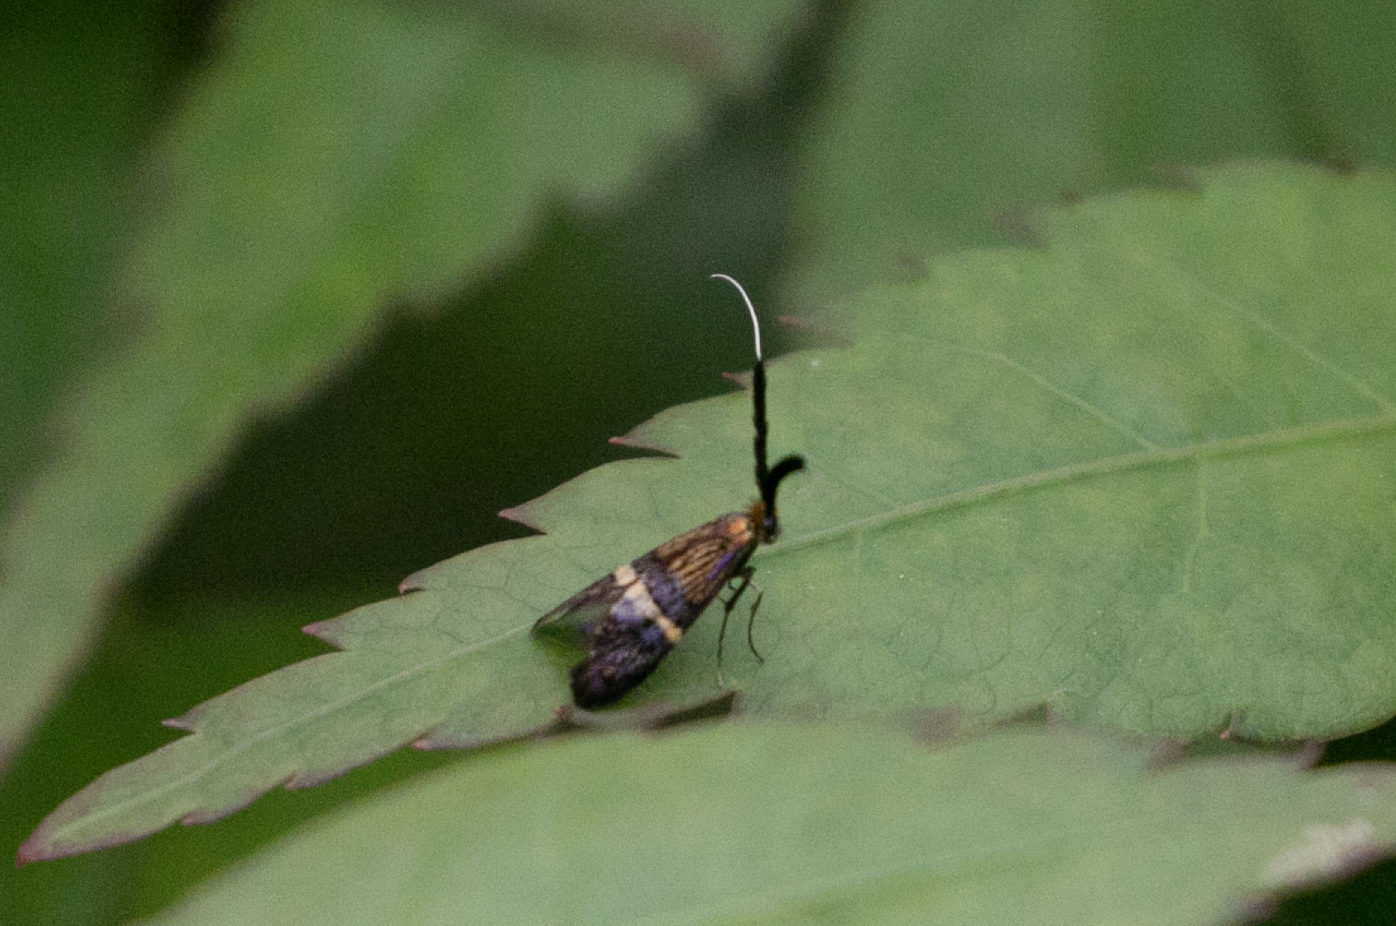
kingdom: Animalia
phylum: Arthropoda
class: Insecta
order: Lepidoptera
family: Adelidae
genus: Adela
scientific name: Adela croesella
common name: Small barred long-horn
